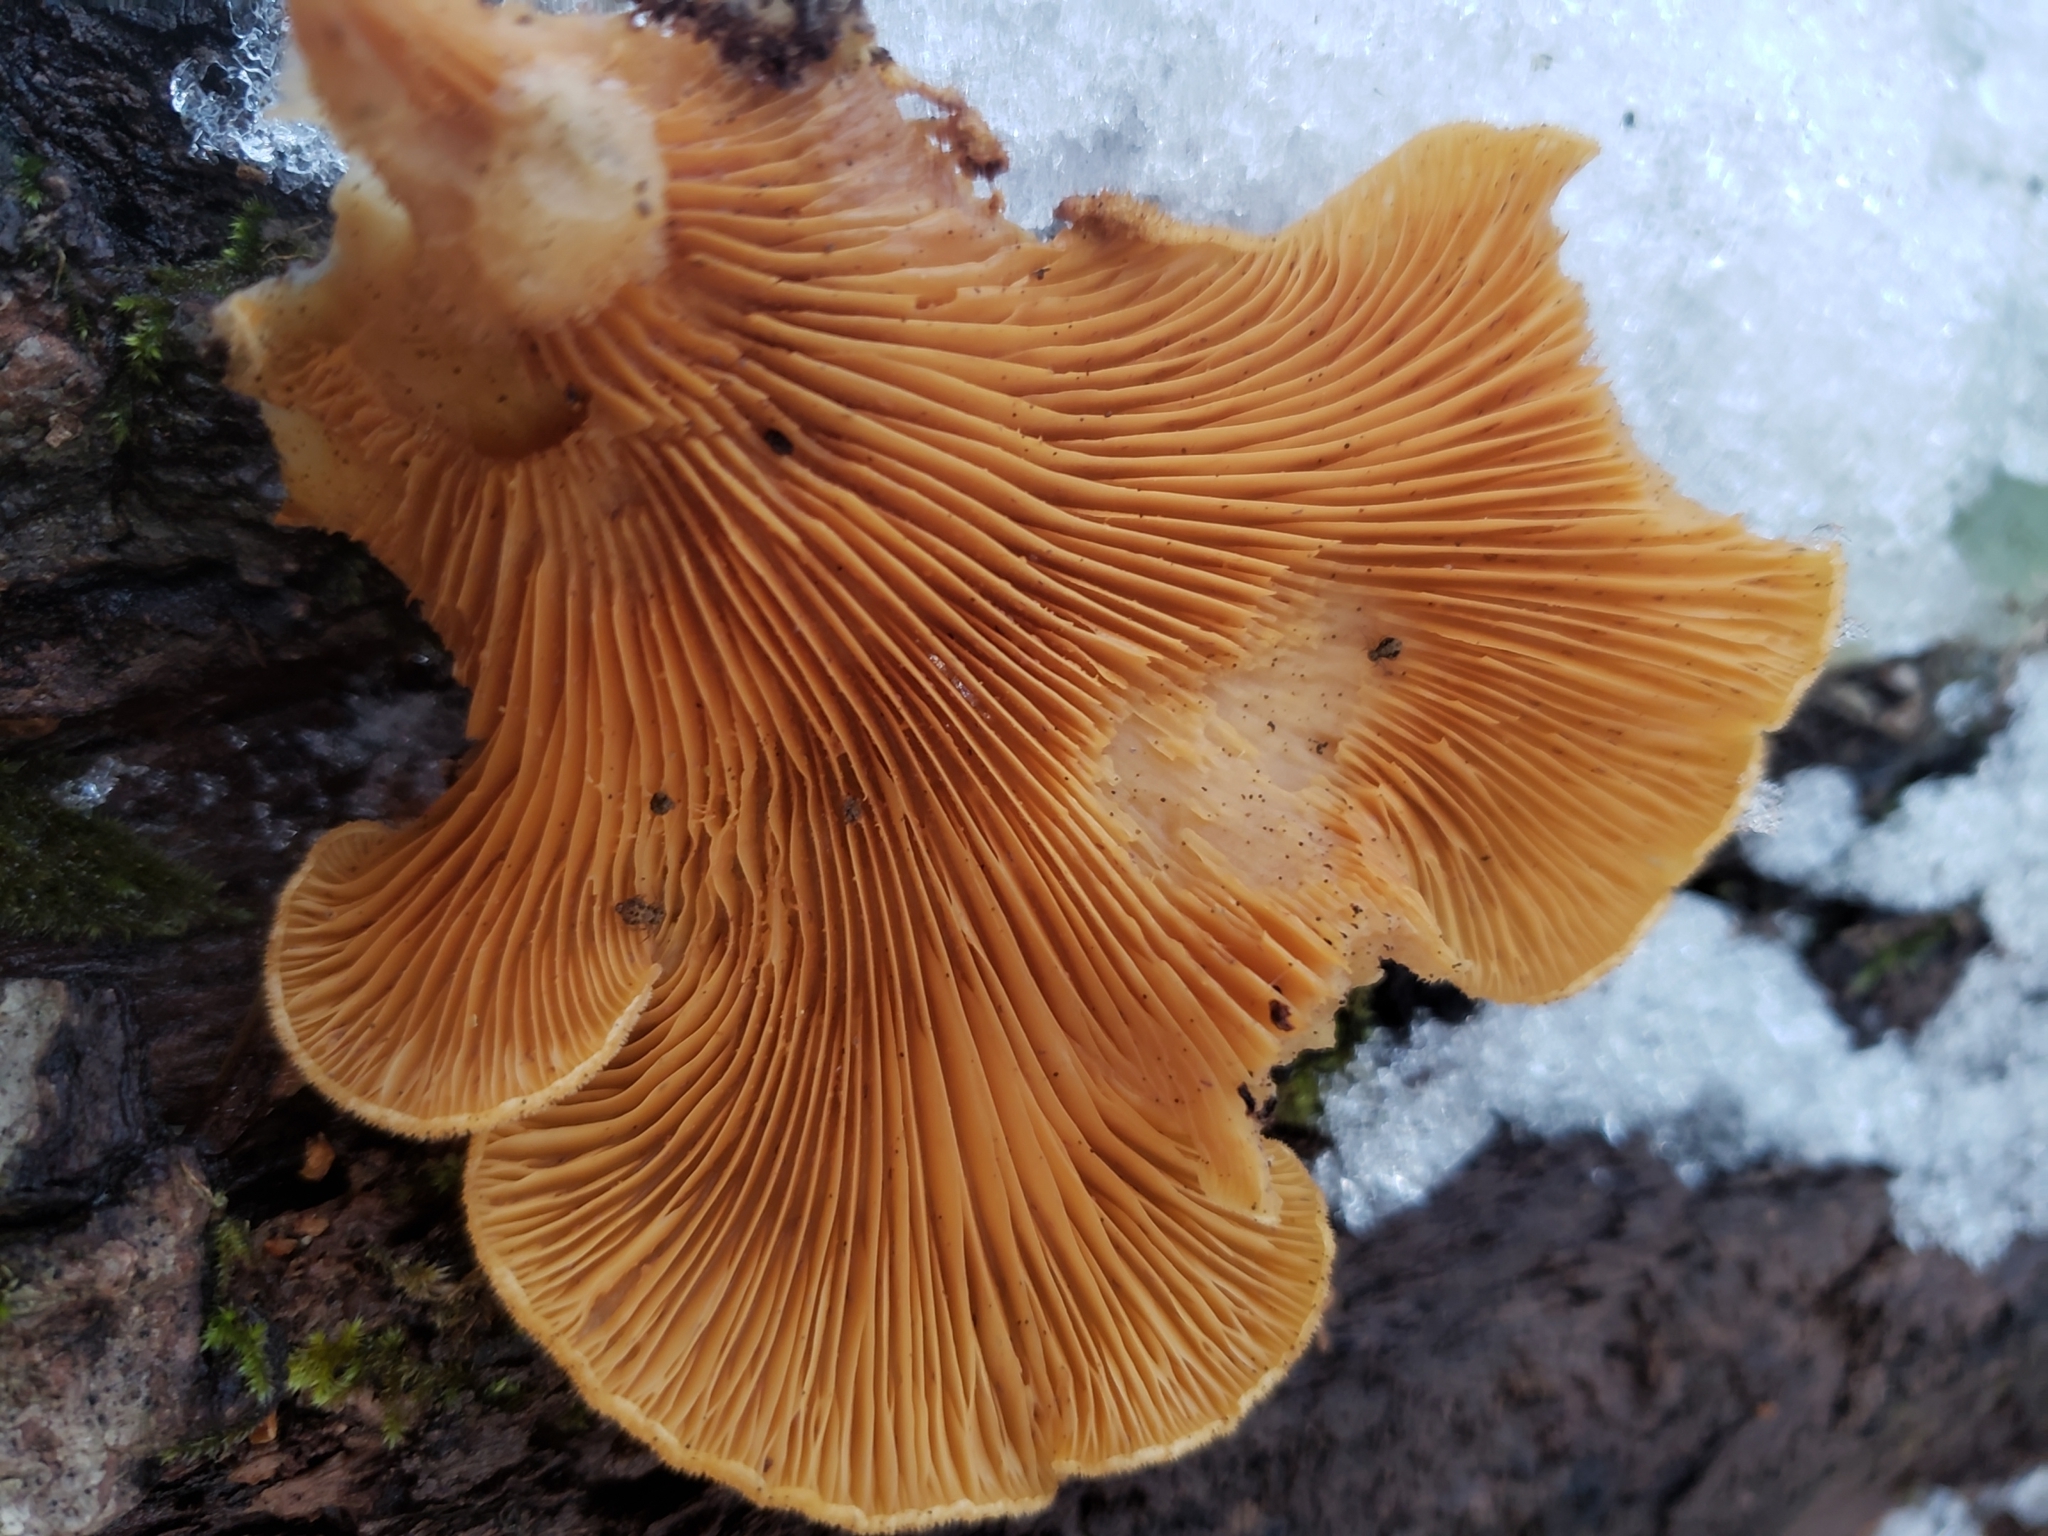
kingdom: Fungi
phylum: Basidiomycota
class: Agaricomycetes
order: Agaricales
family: Phyllotopsidaceae
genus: Phyllotopsis
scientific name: Phyllotopsis nidulans
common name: Orange mock oyster
